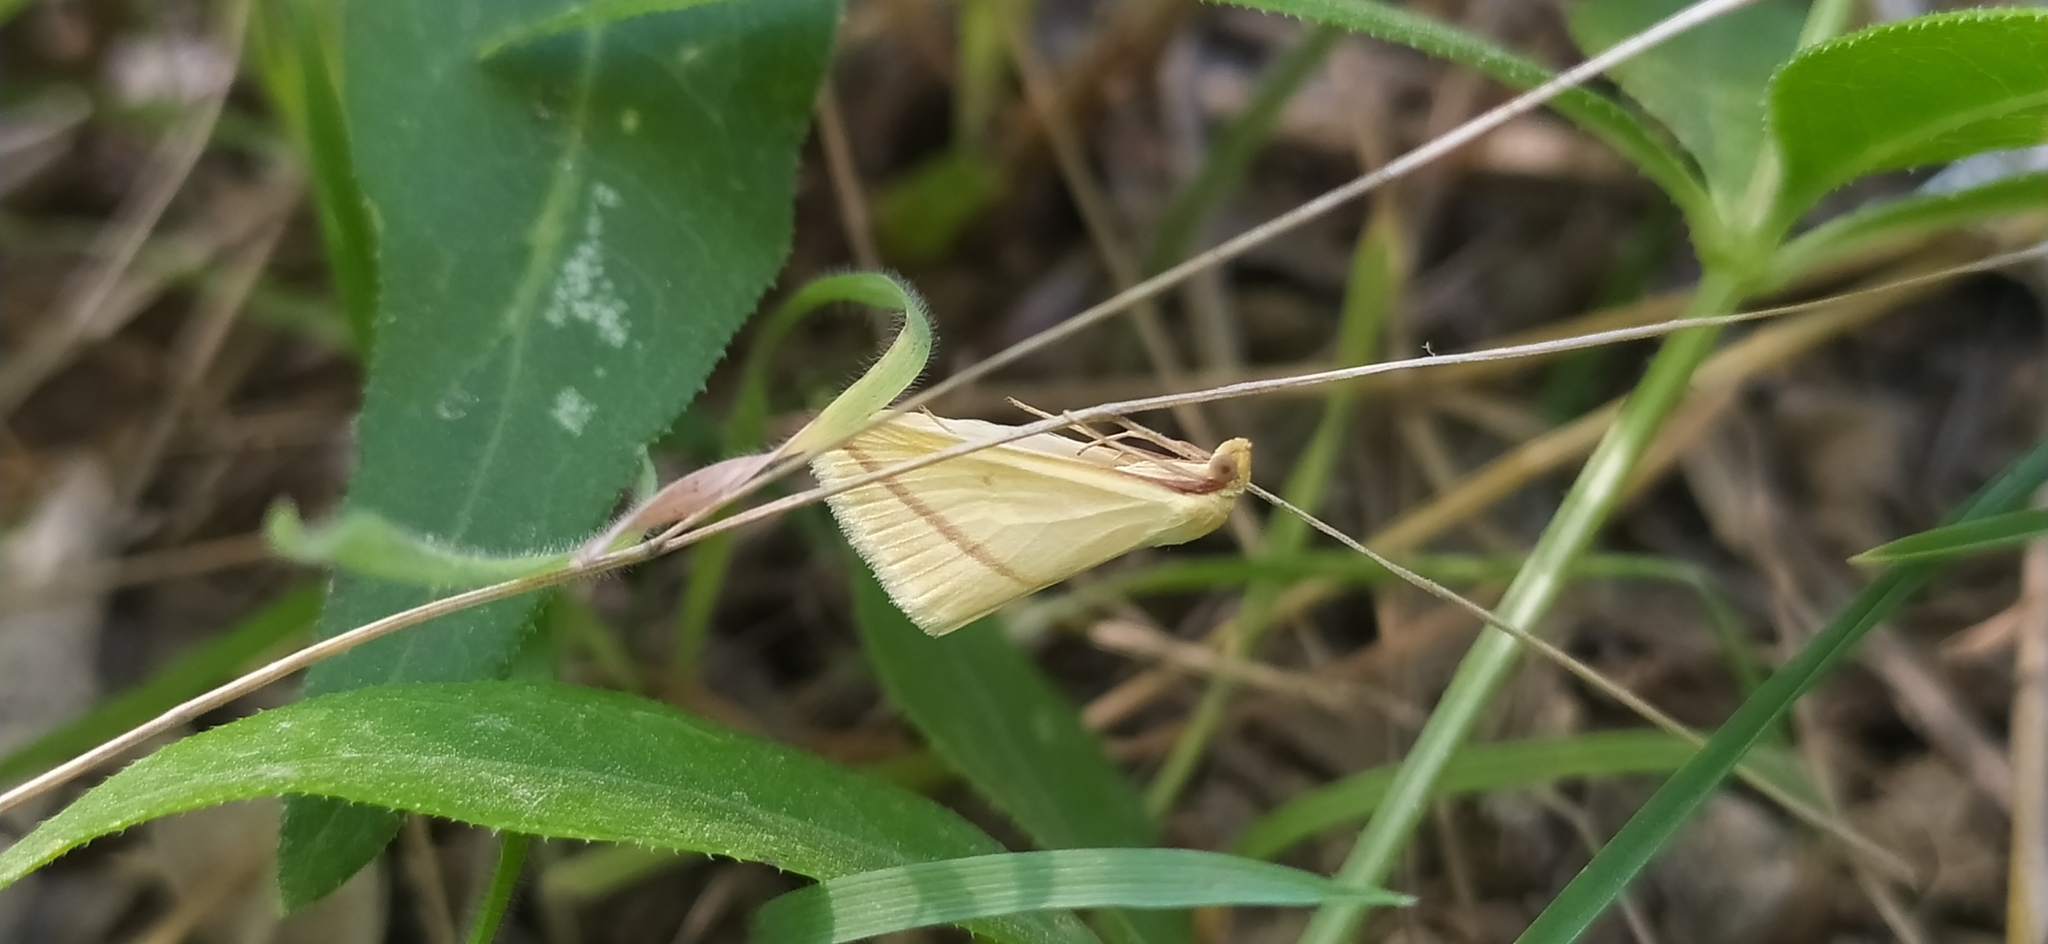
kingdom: Animalia
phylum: Arthropoda
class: Insecta
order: Lepidoptera
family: Geometridae
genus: Rhodometra
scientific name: Rhodometra sacraria
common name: Vestal
